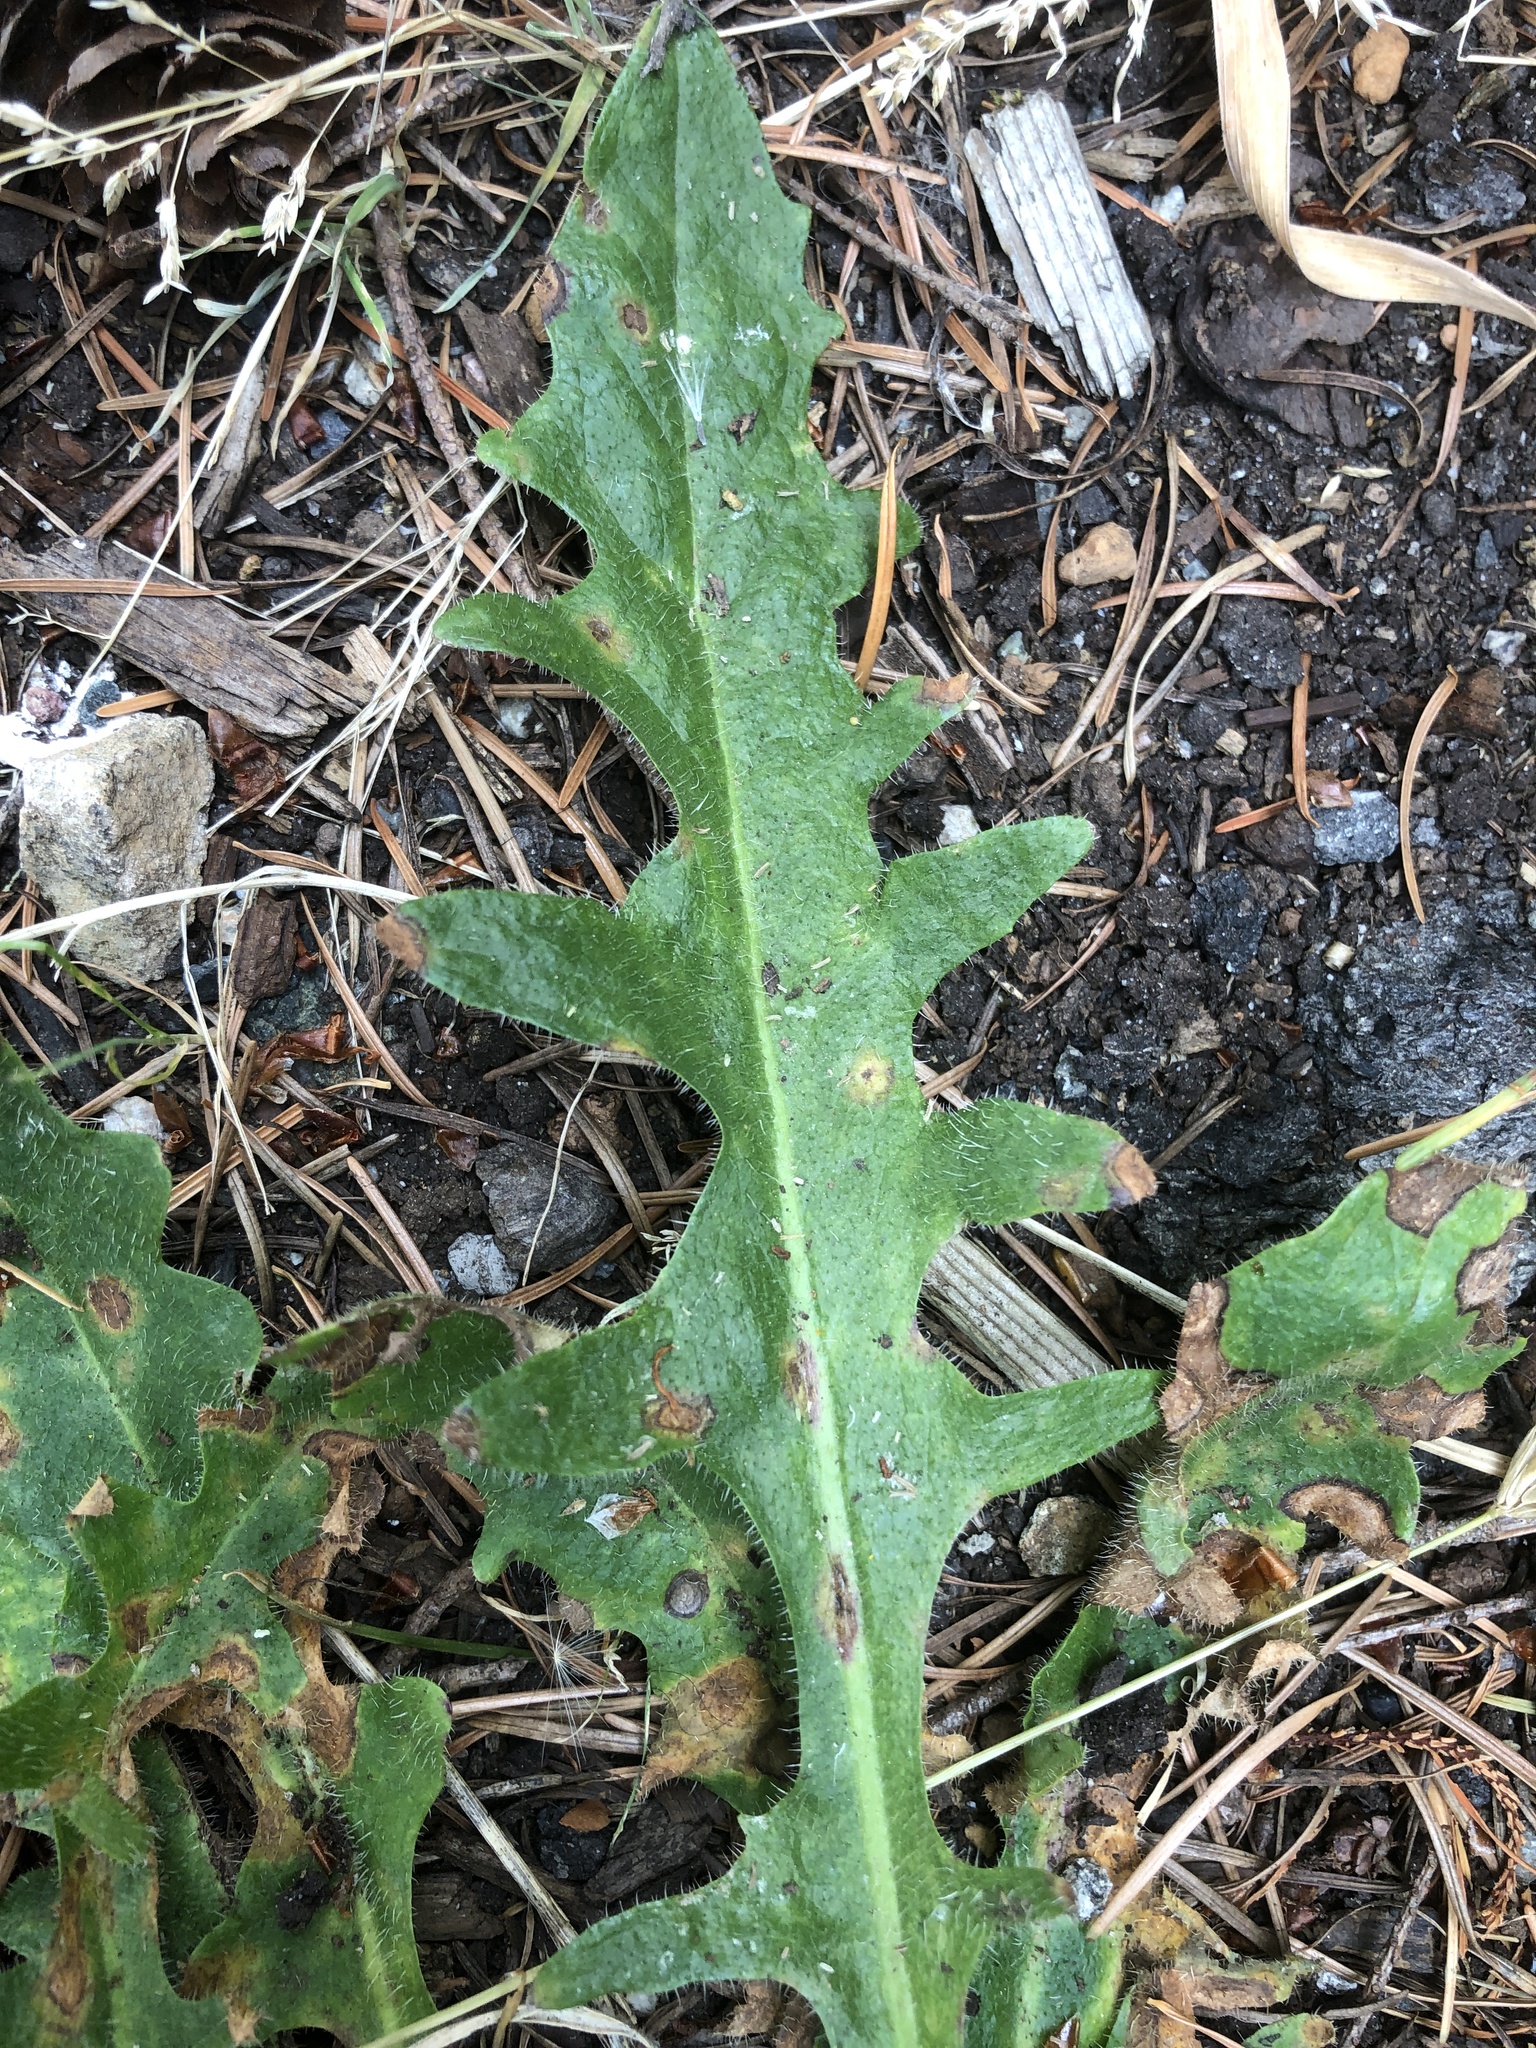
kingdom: Plantae
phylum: Tracheophyta
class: Magnoliopsida
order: Asterales
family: Asteraceae
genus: Hypochaeris
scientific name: Hypochaeris radicata
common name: Flatweed
